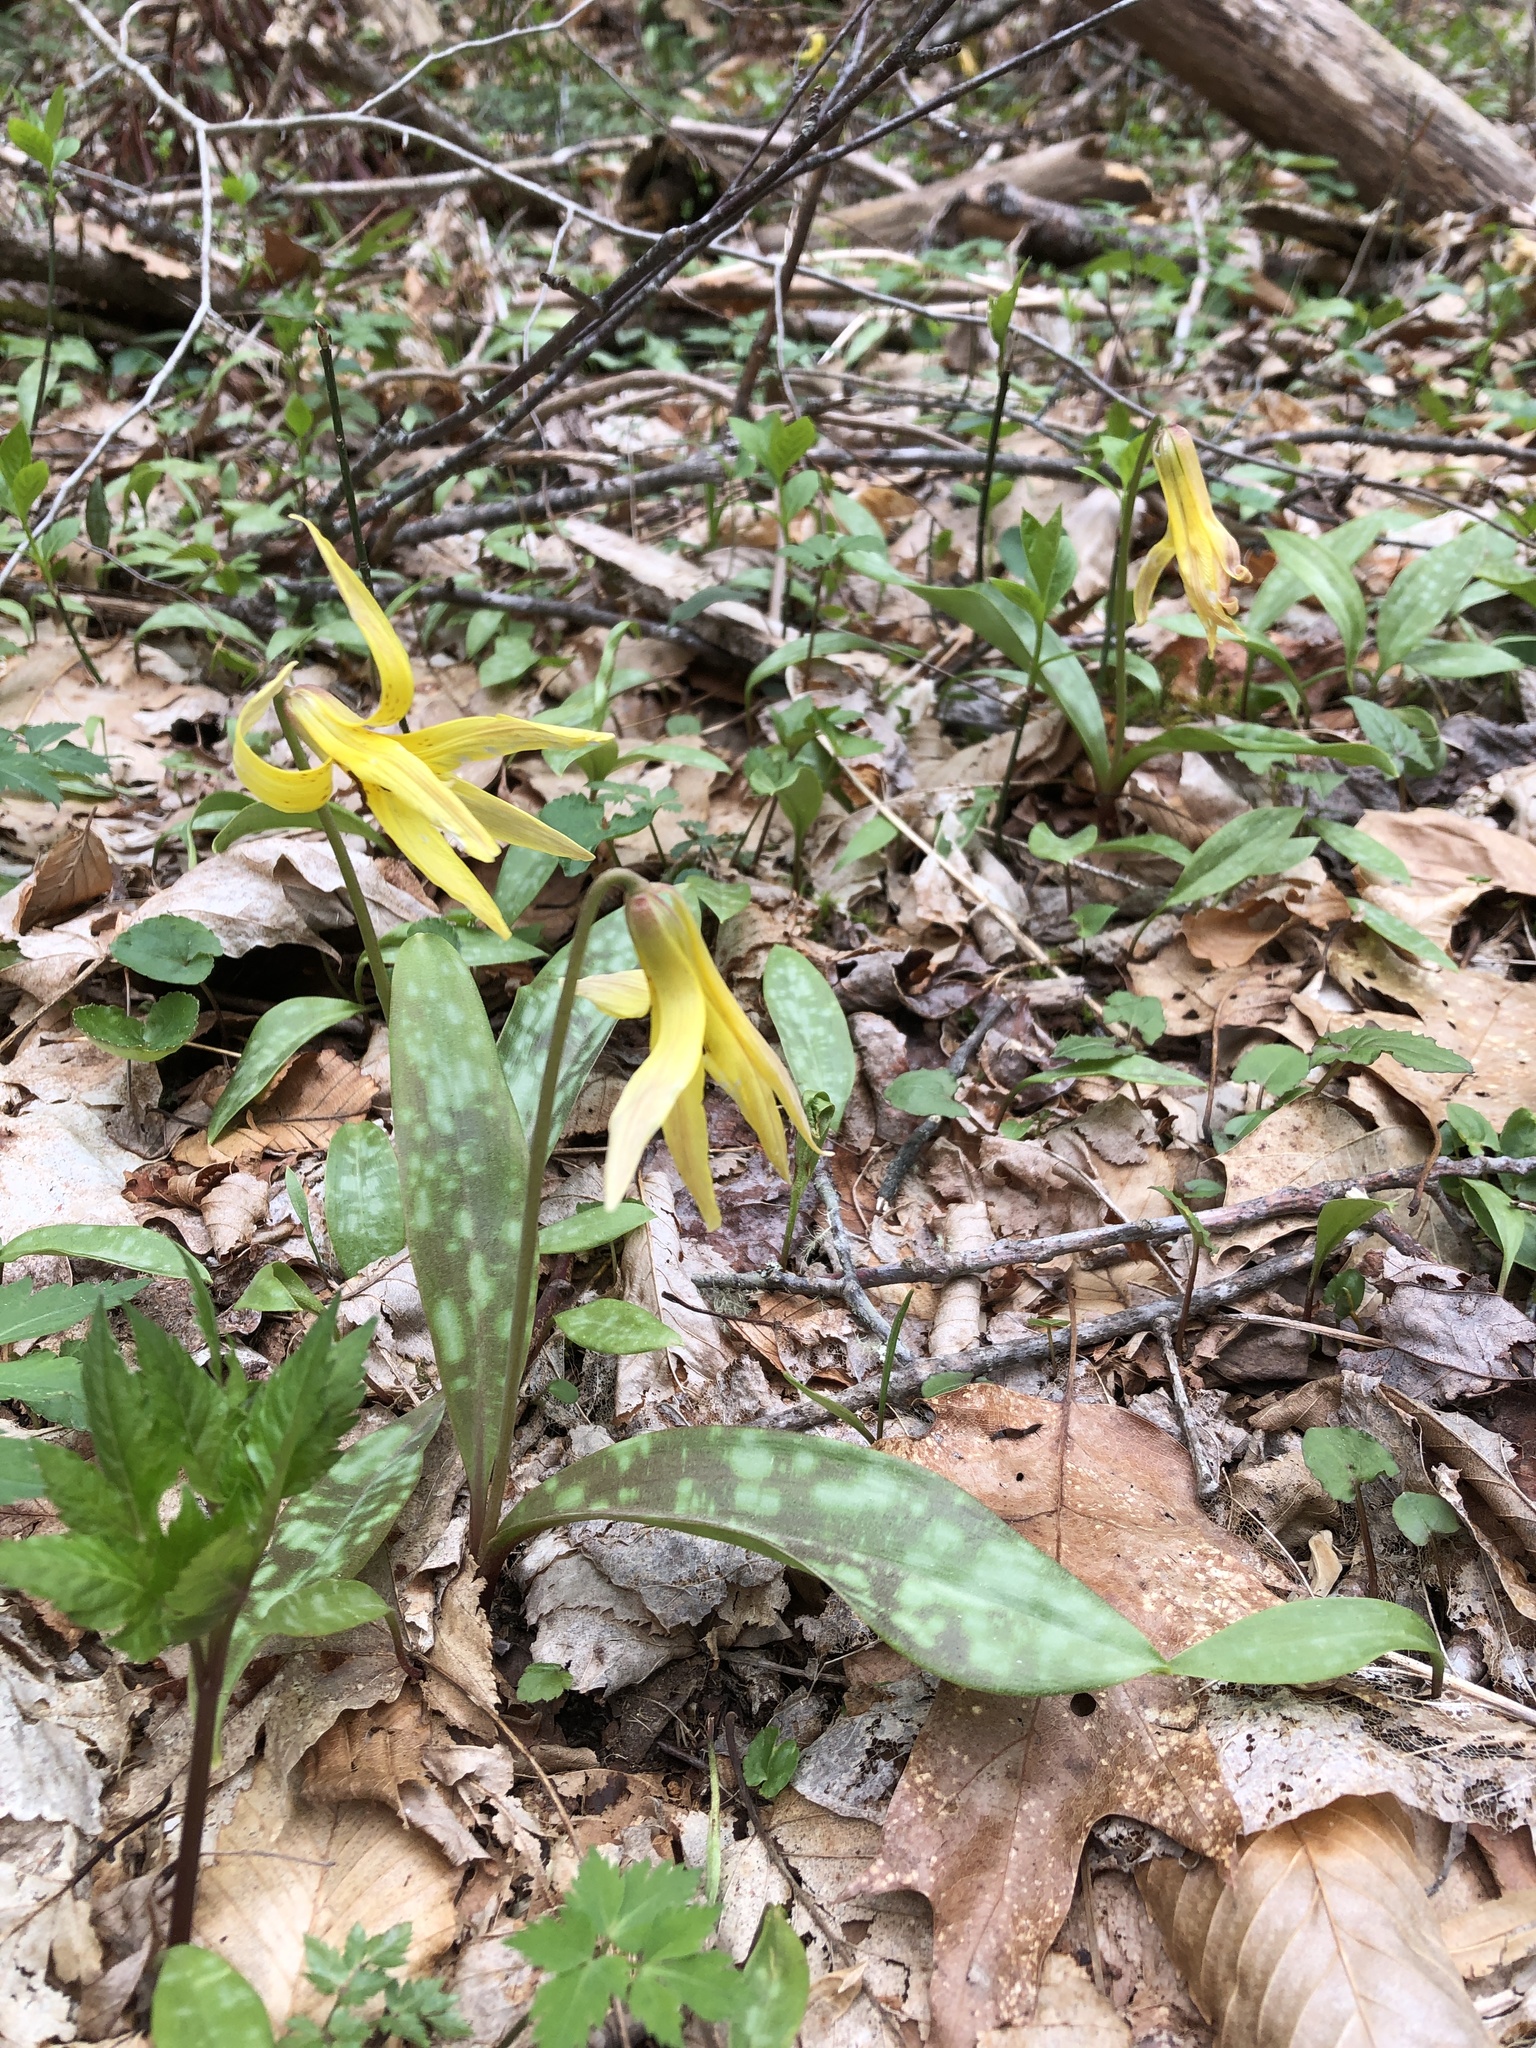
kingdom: Plantae
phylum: Tracheophyta
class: Liliopsida
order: Liliales
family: Liliaceae
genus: Erythronium
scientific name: Erythronium umbilicatum
